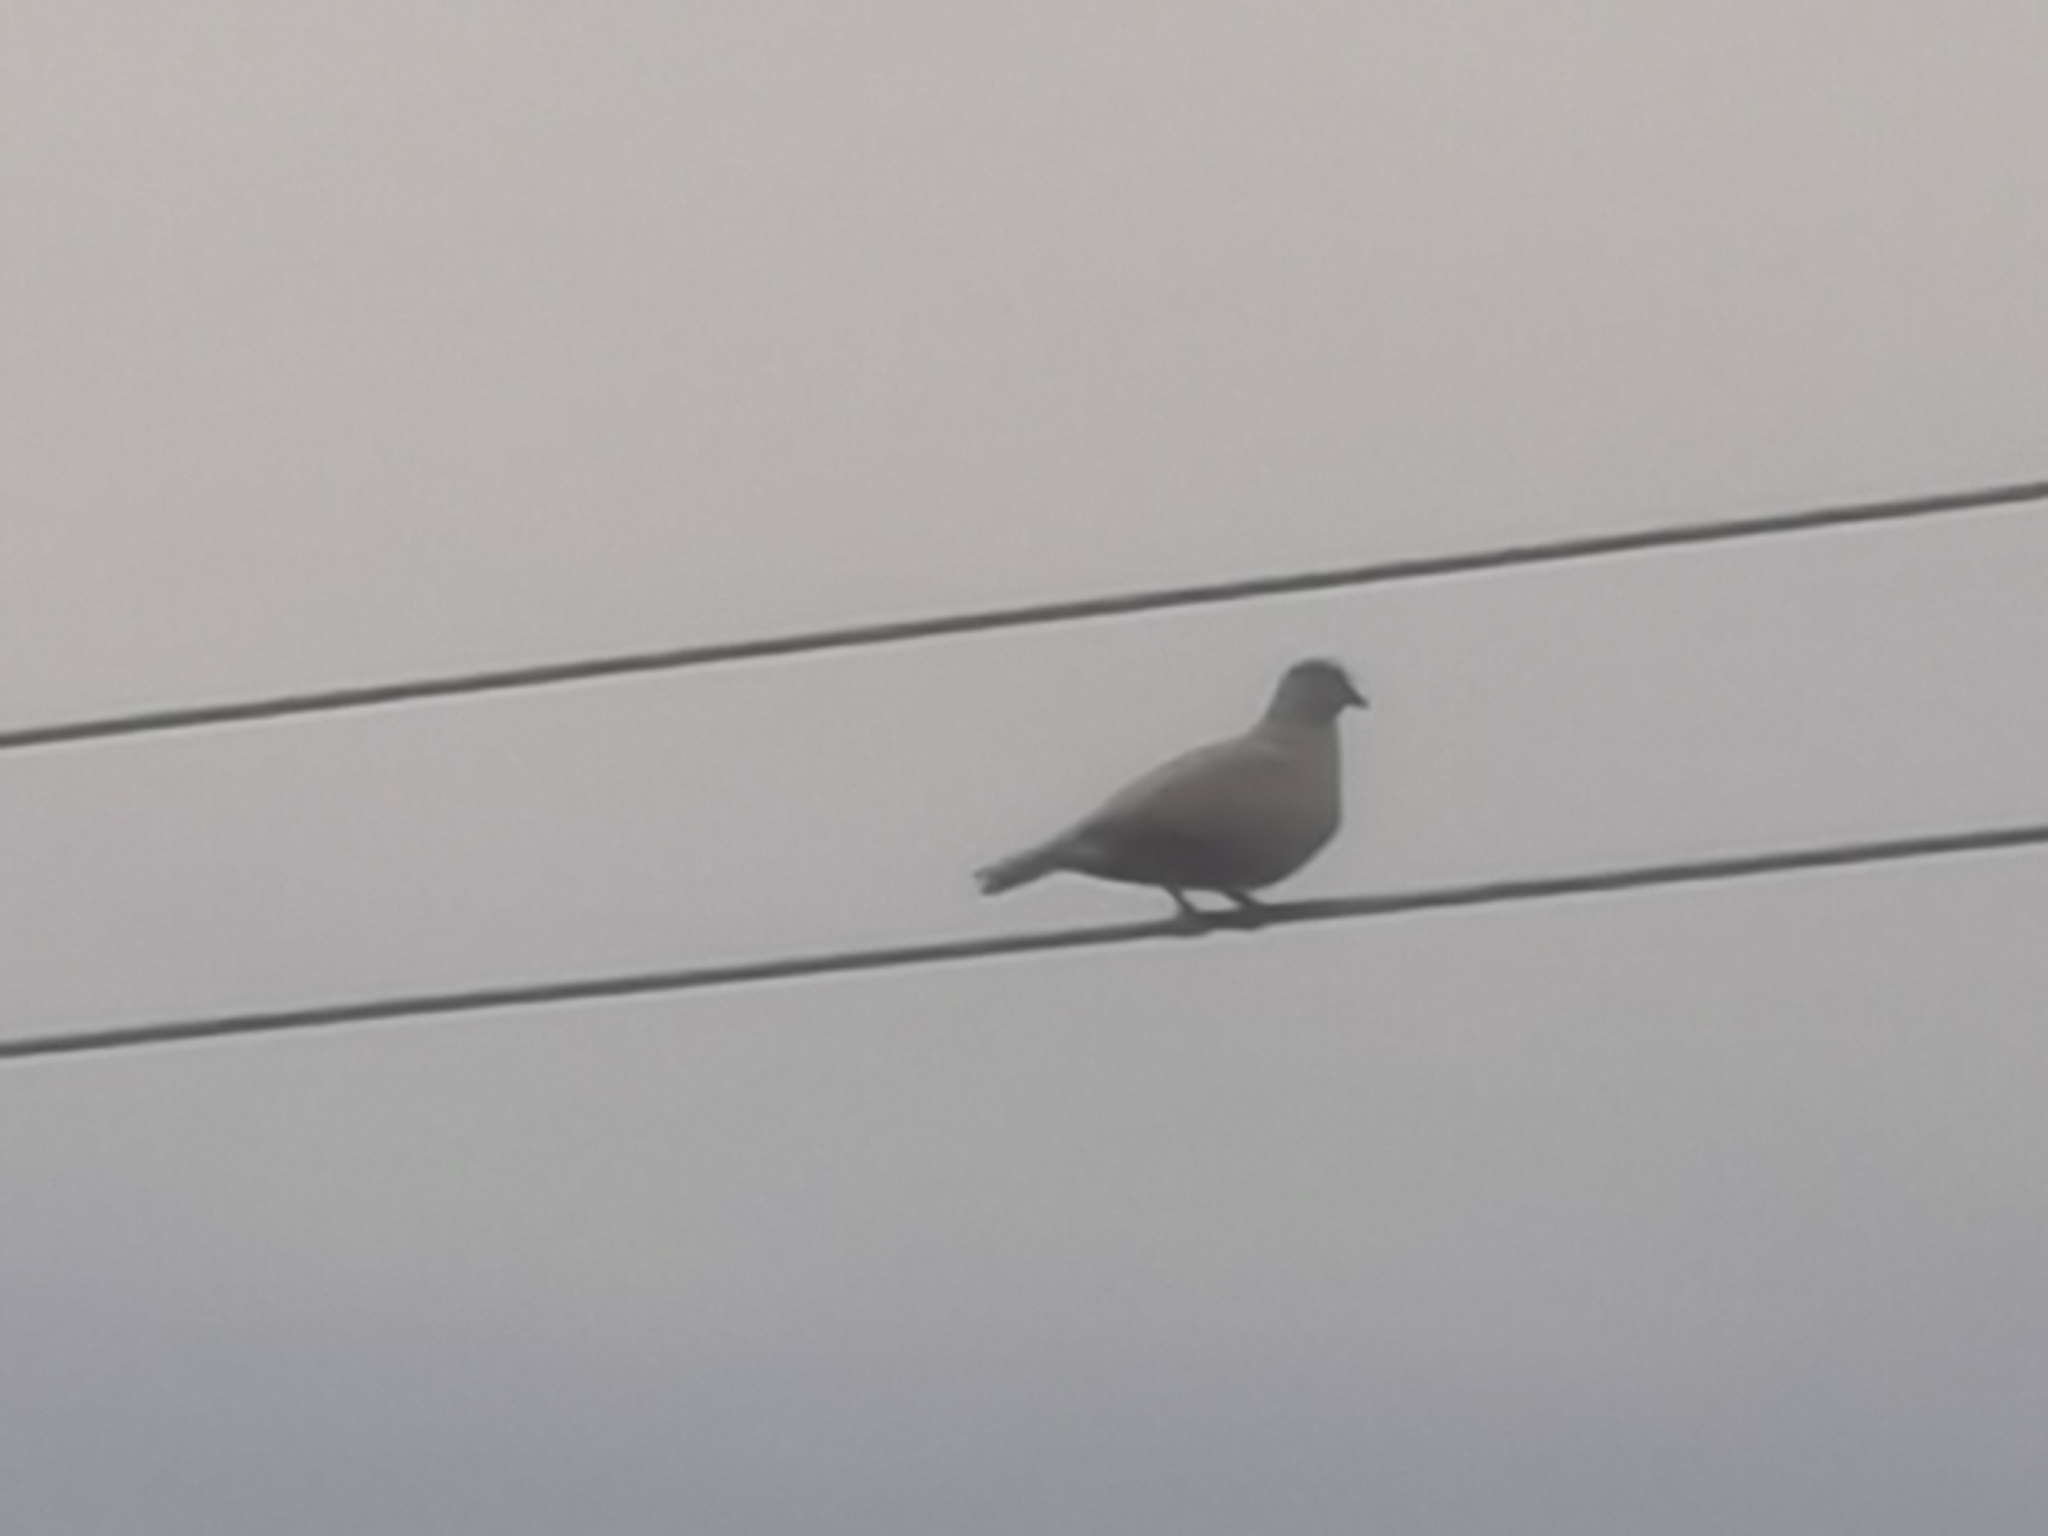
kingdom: Animalia
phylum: Chordata
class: Aves
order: Columbiformes
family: Columbidae
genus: Streptopelia
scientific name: Streptopelia decaocto
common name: Eurasian collared dove
